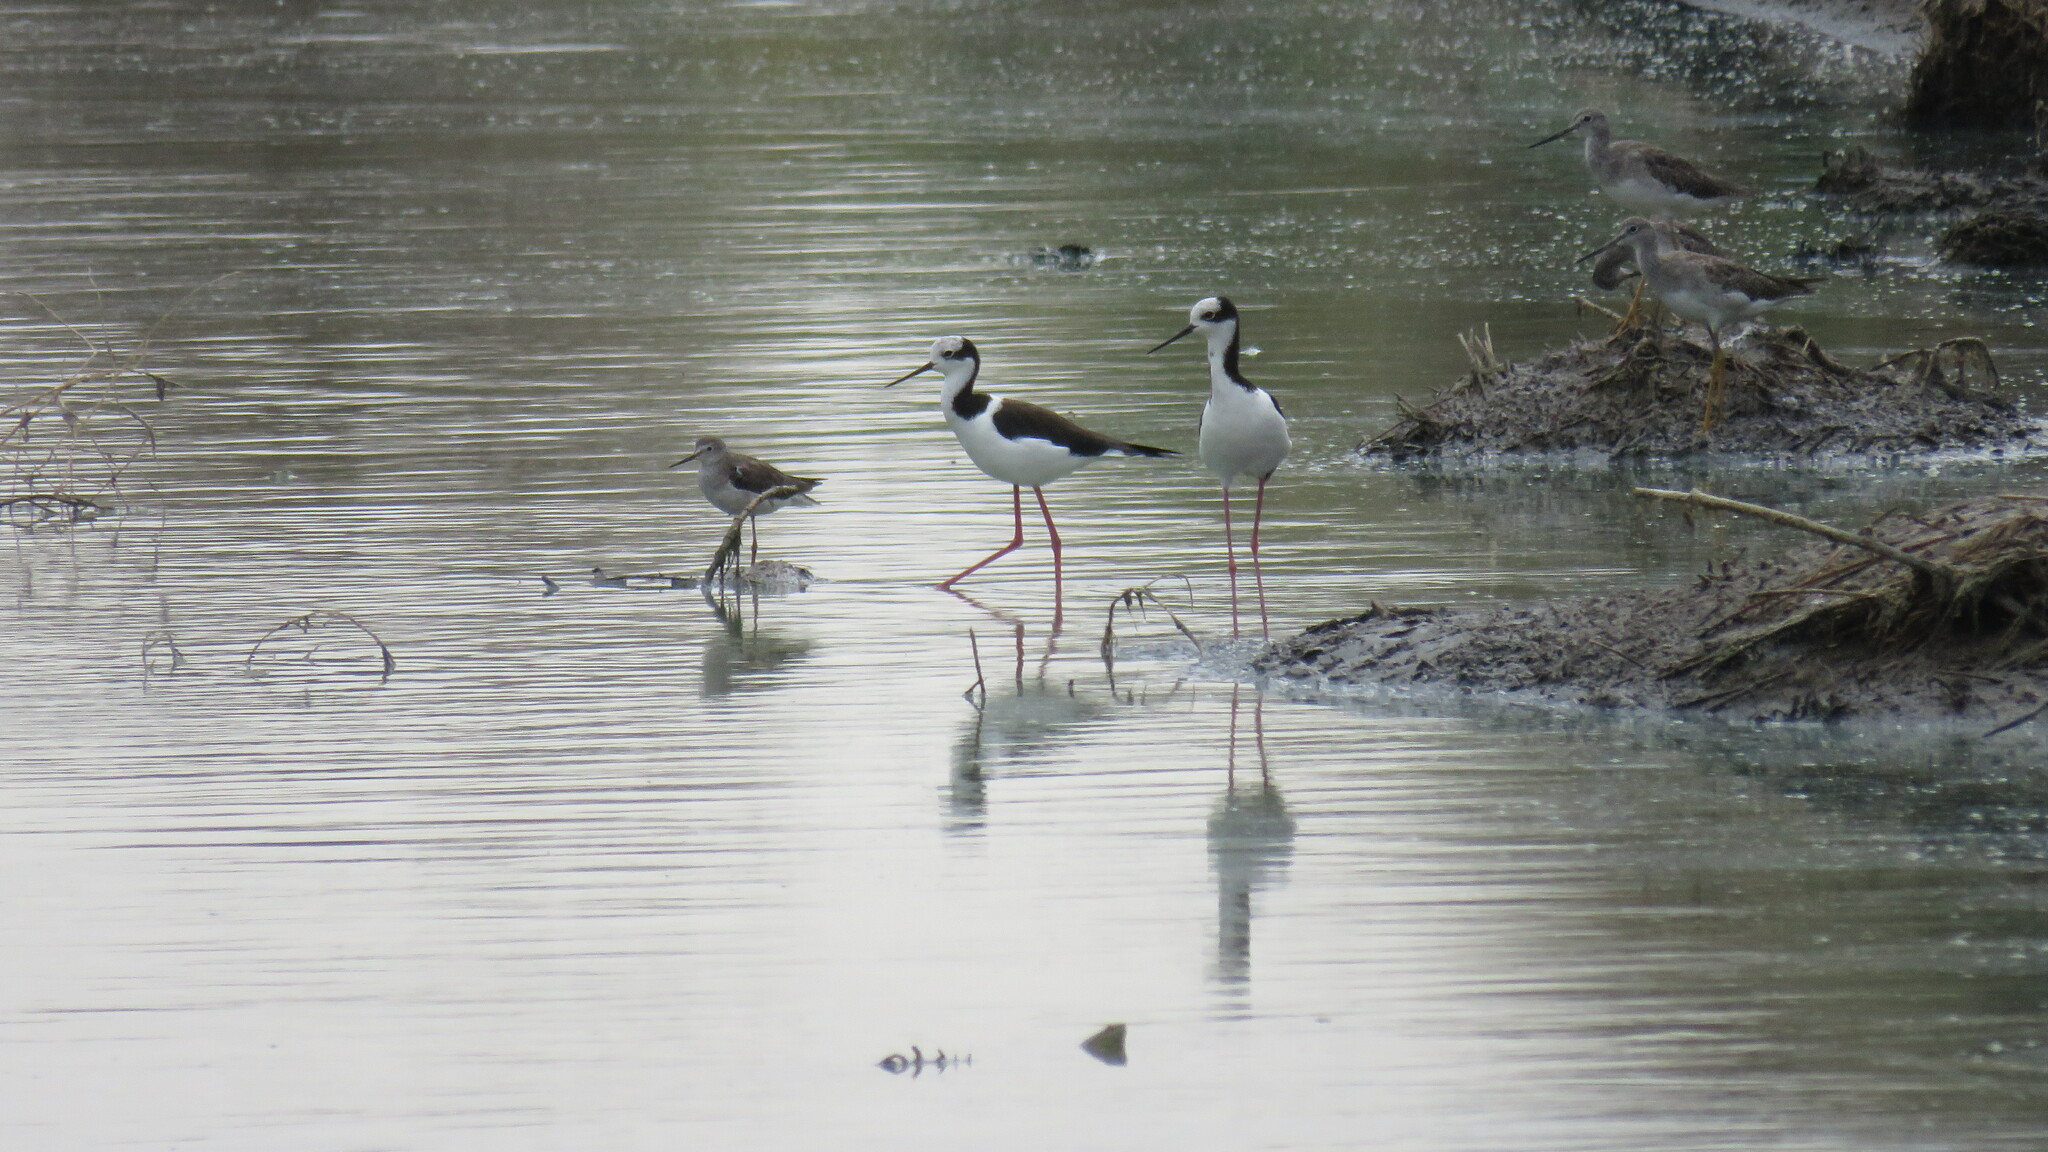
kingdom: Animalia
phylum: Chordata
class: Aves
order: Charadriiformes
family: Recurvirostridae
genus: Himantopus
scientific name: Himantopus mexicanus
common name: Black-necked stilt
